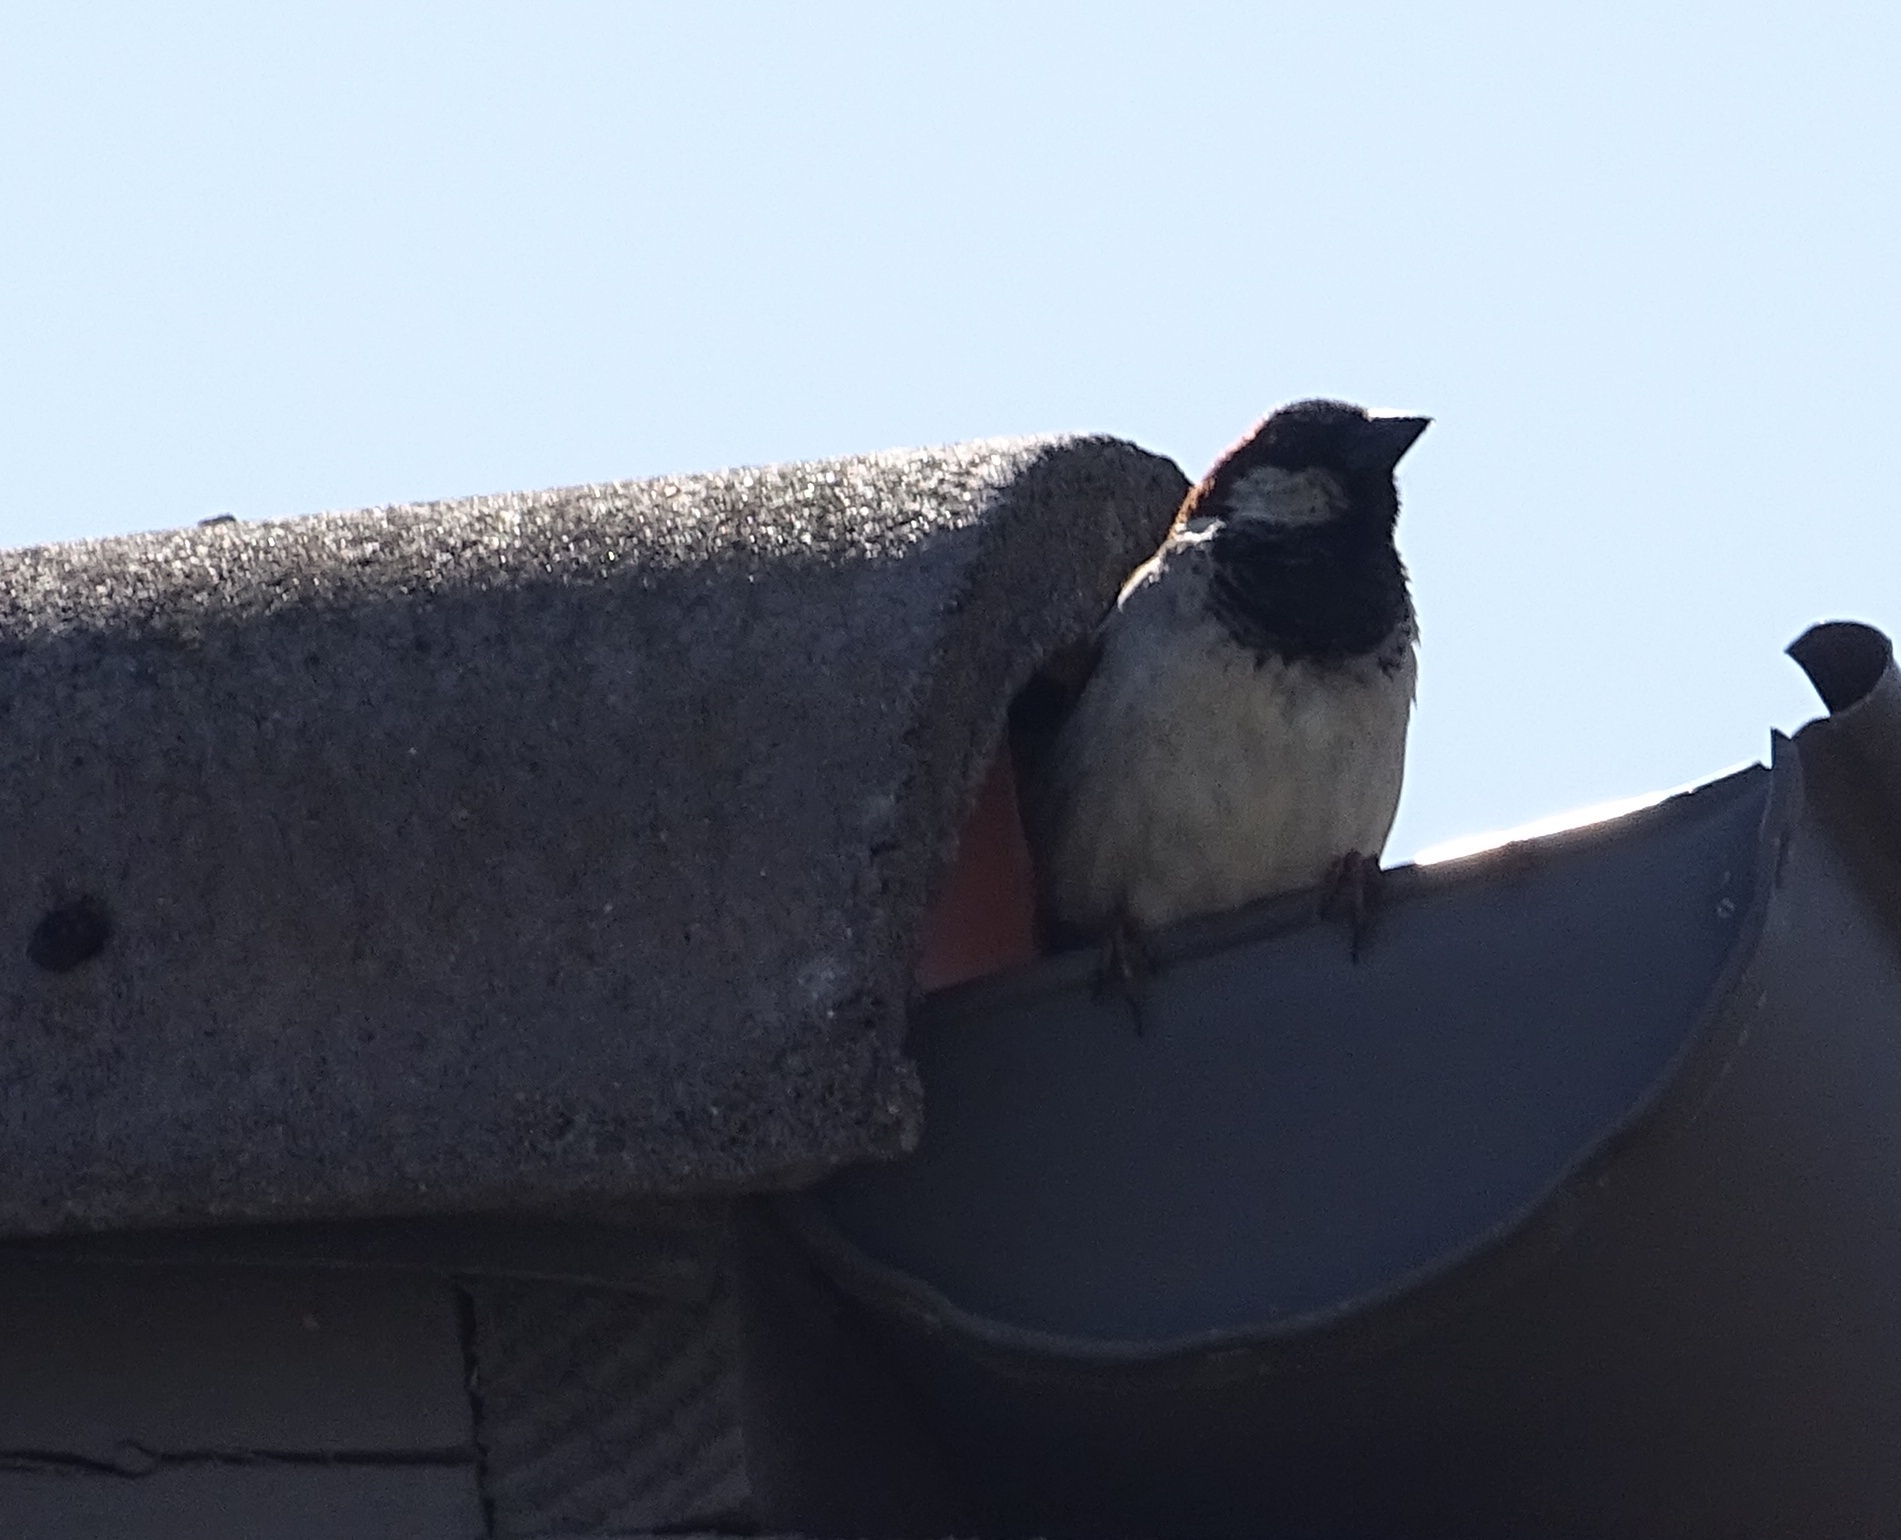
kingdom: Animalia
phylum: Chordata
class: Aves
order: Passeriformes
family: Passeridae
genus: Passer
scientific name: Passer domesticus
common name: House sparrow
